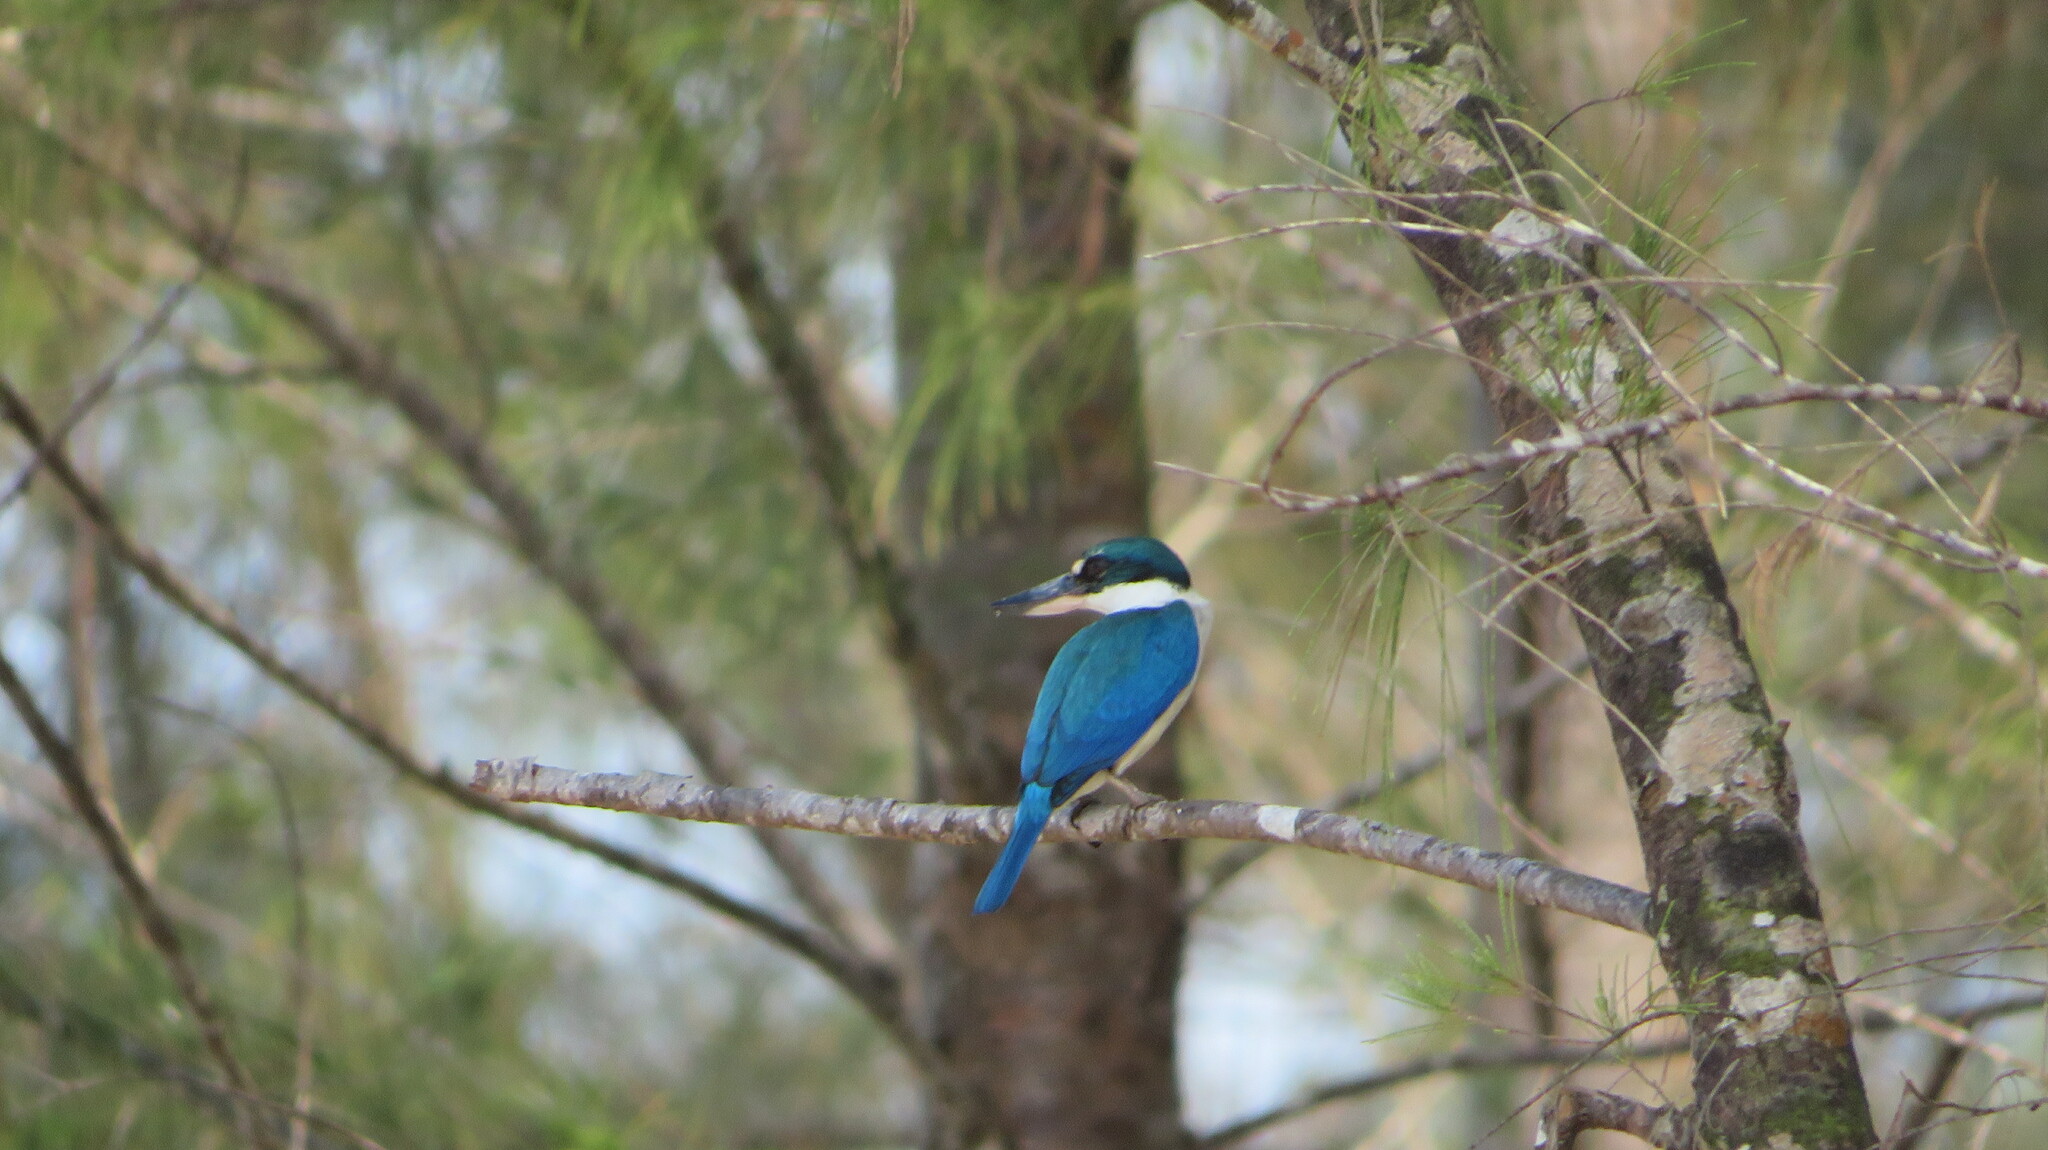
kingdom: Animalia
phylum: Chordata
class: Aves
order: Coraciiformes
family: Alcedinidae
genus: Todiramphus
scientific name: Todiramphus chloris
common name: Collared kingfisher
